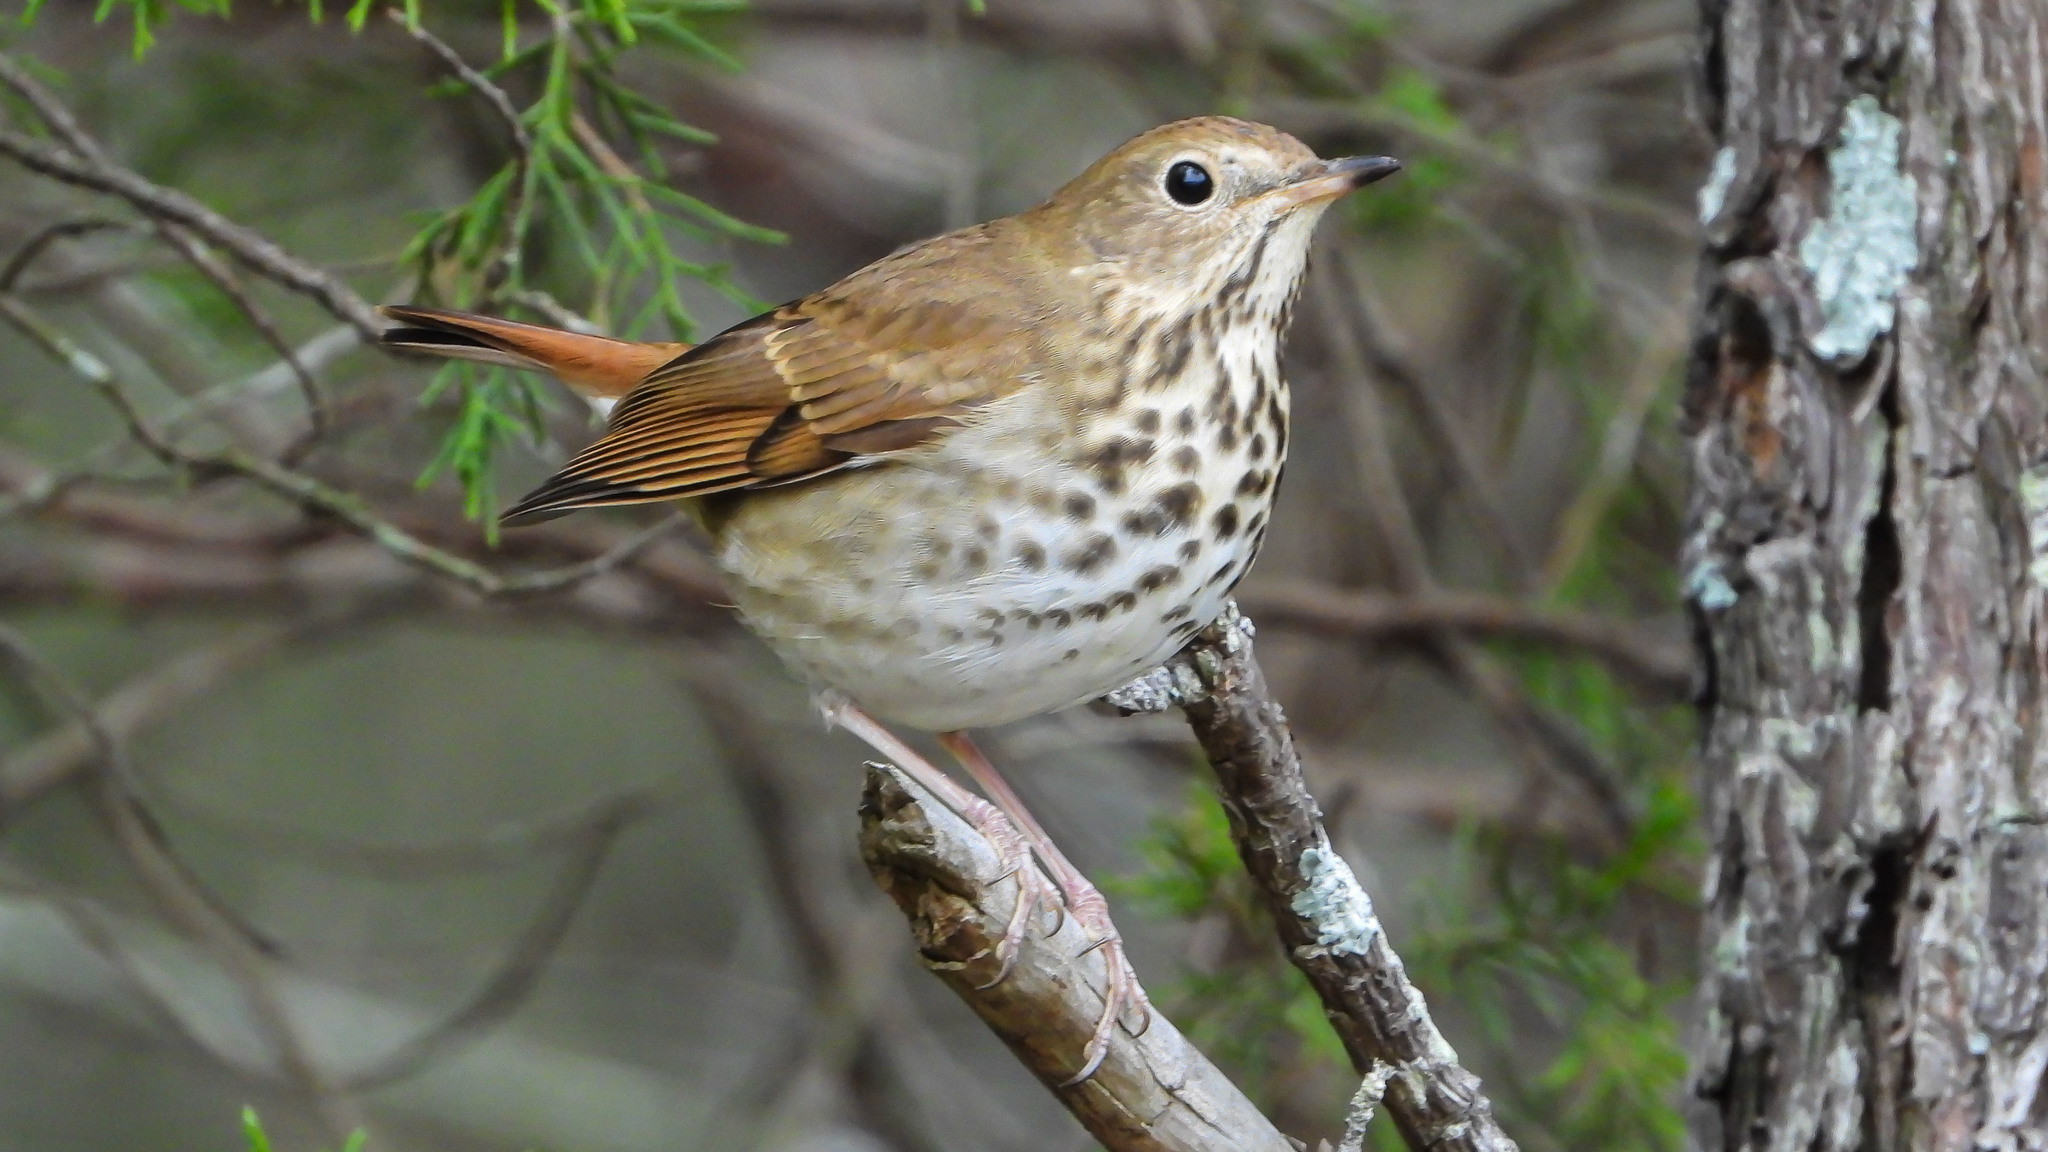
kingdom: Animalia
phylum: Chordata
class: Aves
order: Passeriformes
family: Turdidae
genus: Catharus
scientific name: Catharus guttatus
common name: Hermit thrush
